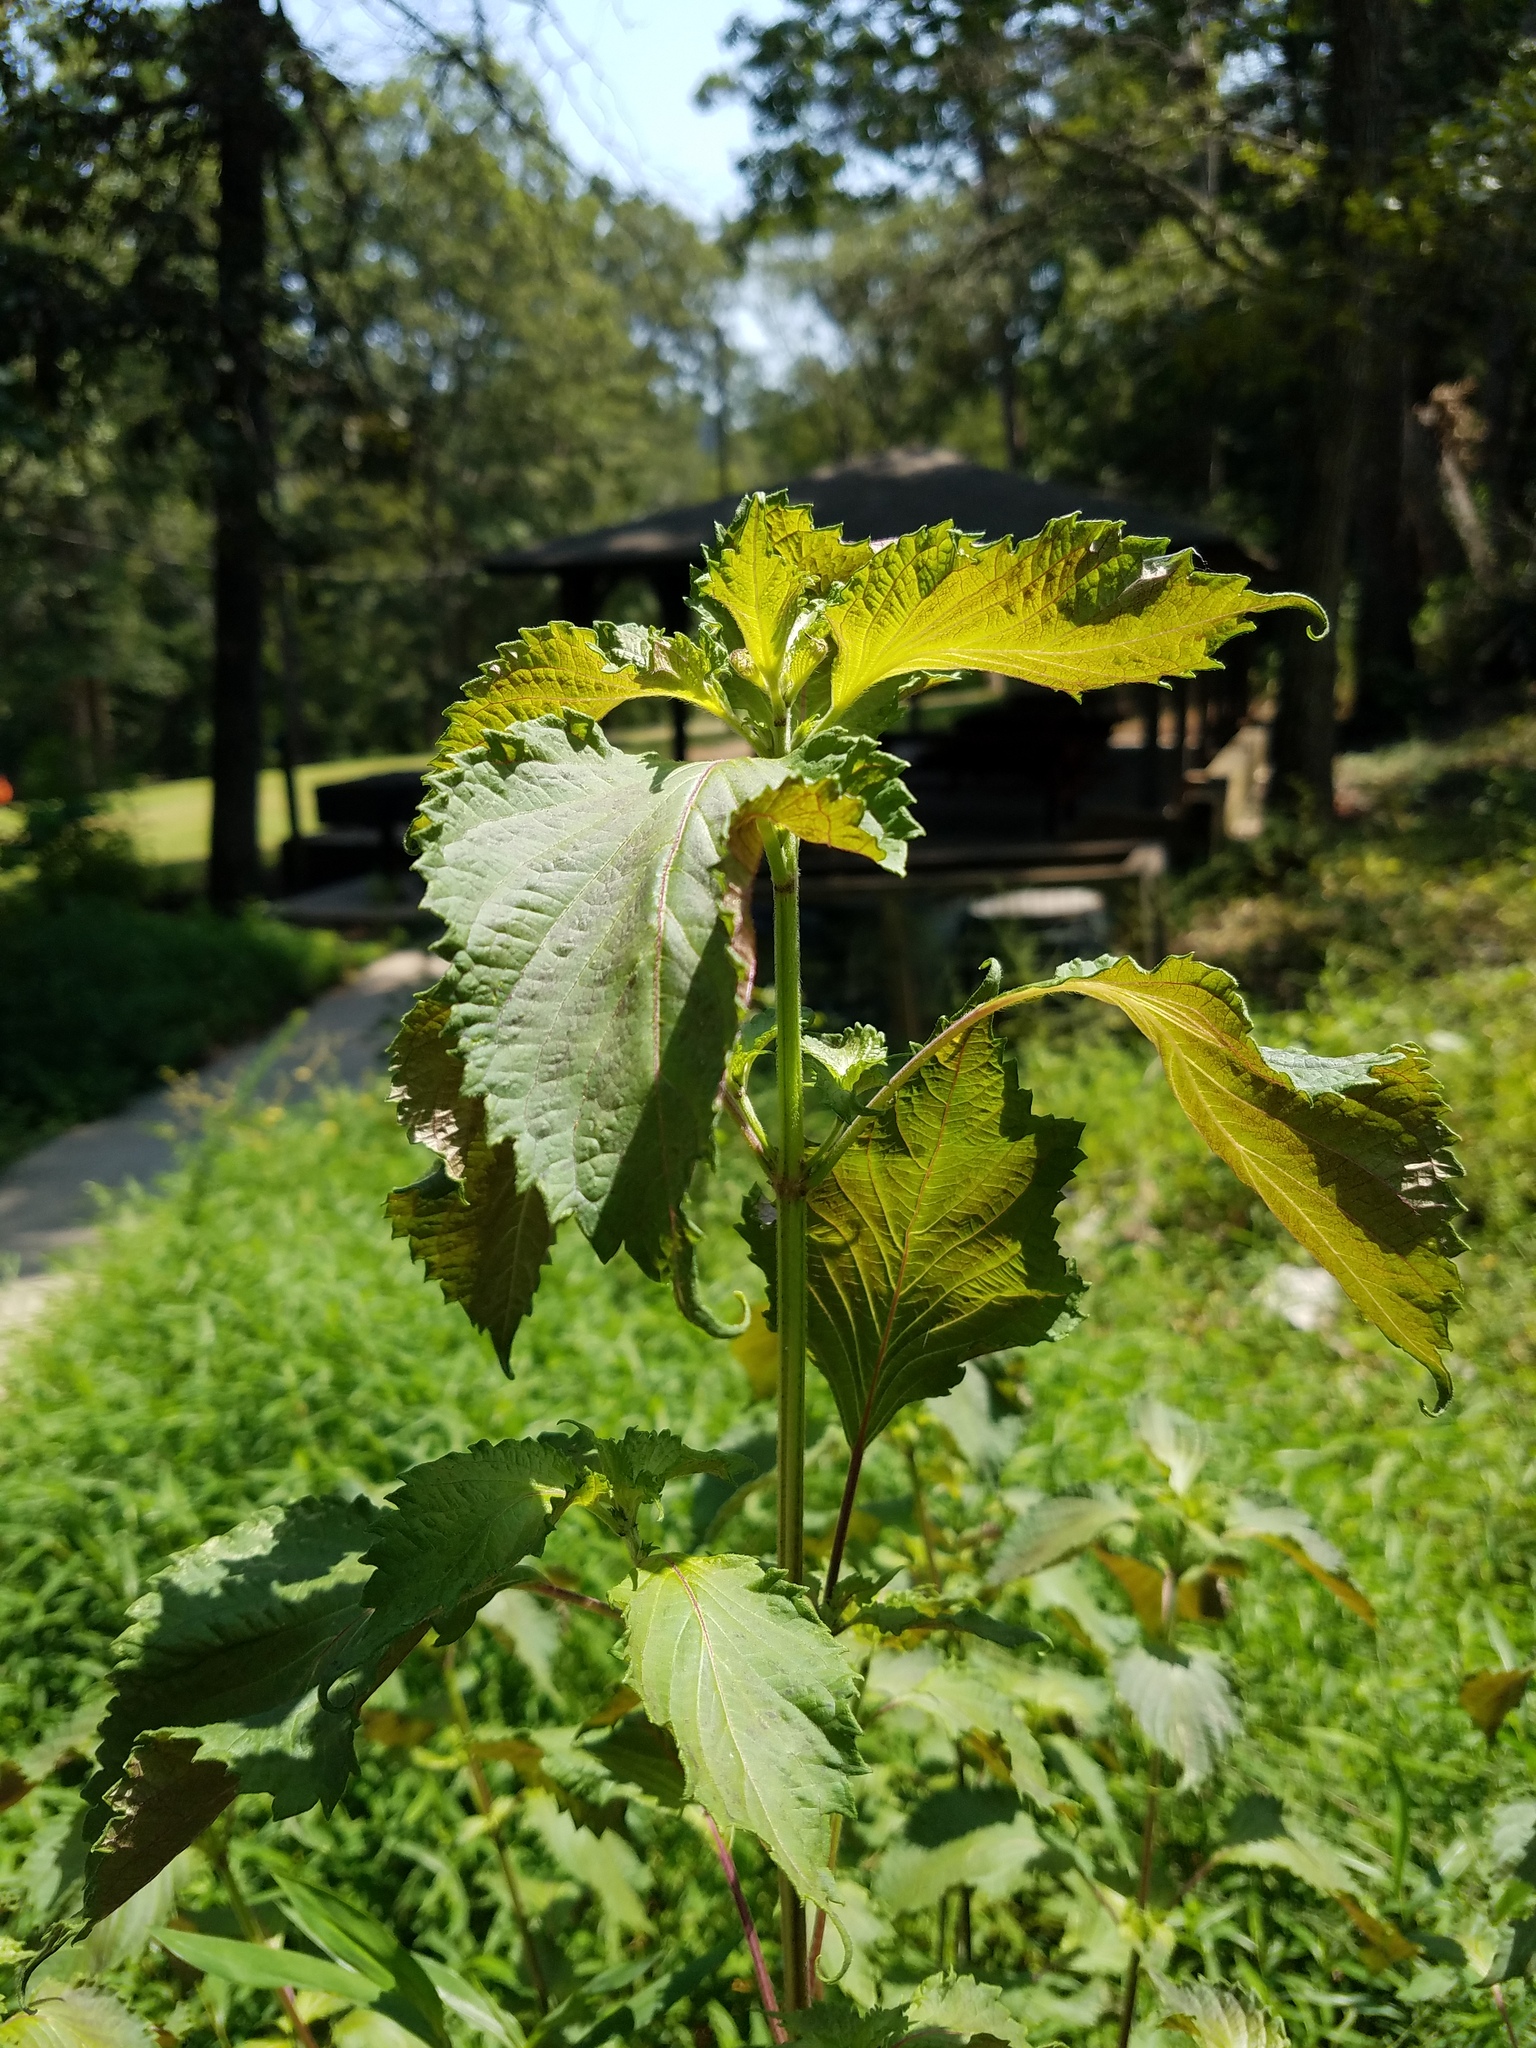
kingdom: Plantae
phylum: Tracheophyta
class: Magnoliopsida
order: Lamiales
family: Lamiaceae
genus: Perilla
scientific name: Perilla frutescens
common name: Perilla
